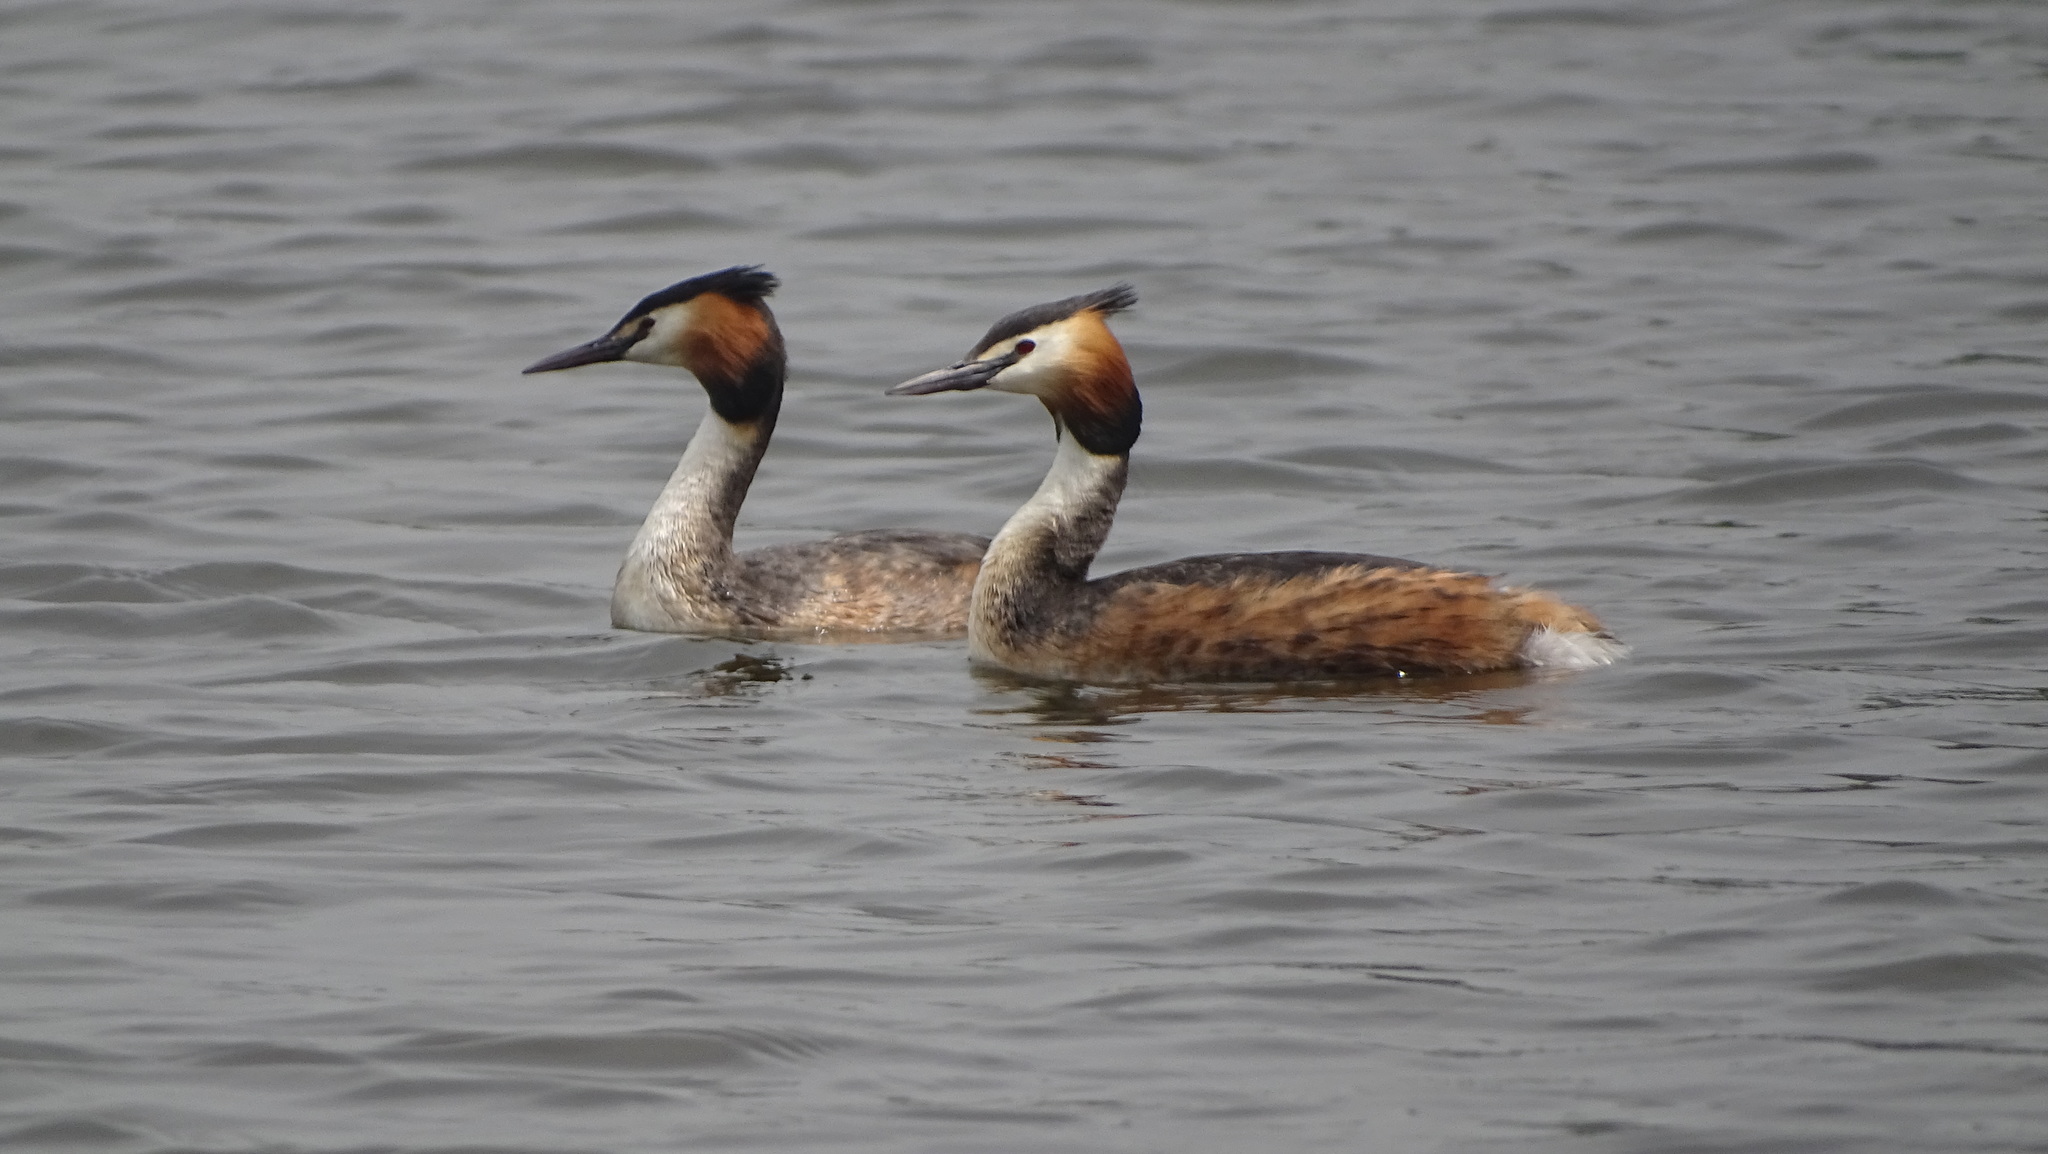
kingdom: Animalia
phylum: Chordata
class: Aves
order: Podicipediformes
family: Podicipedidae
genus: Podiceps
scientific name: Podiceps cristatus
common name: Great crested grebe
